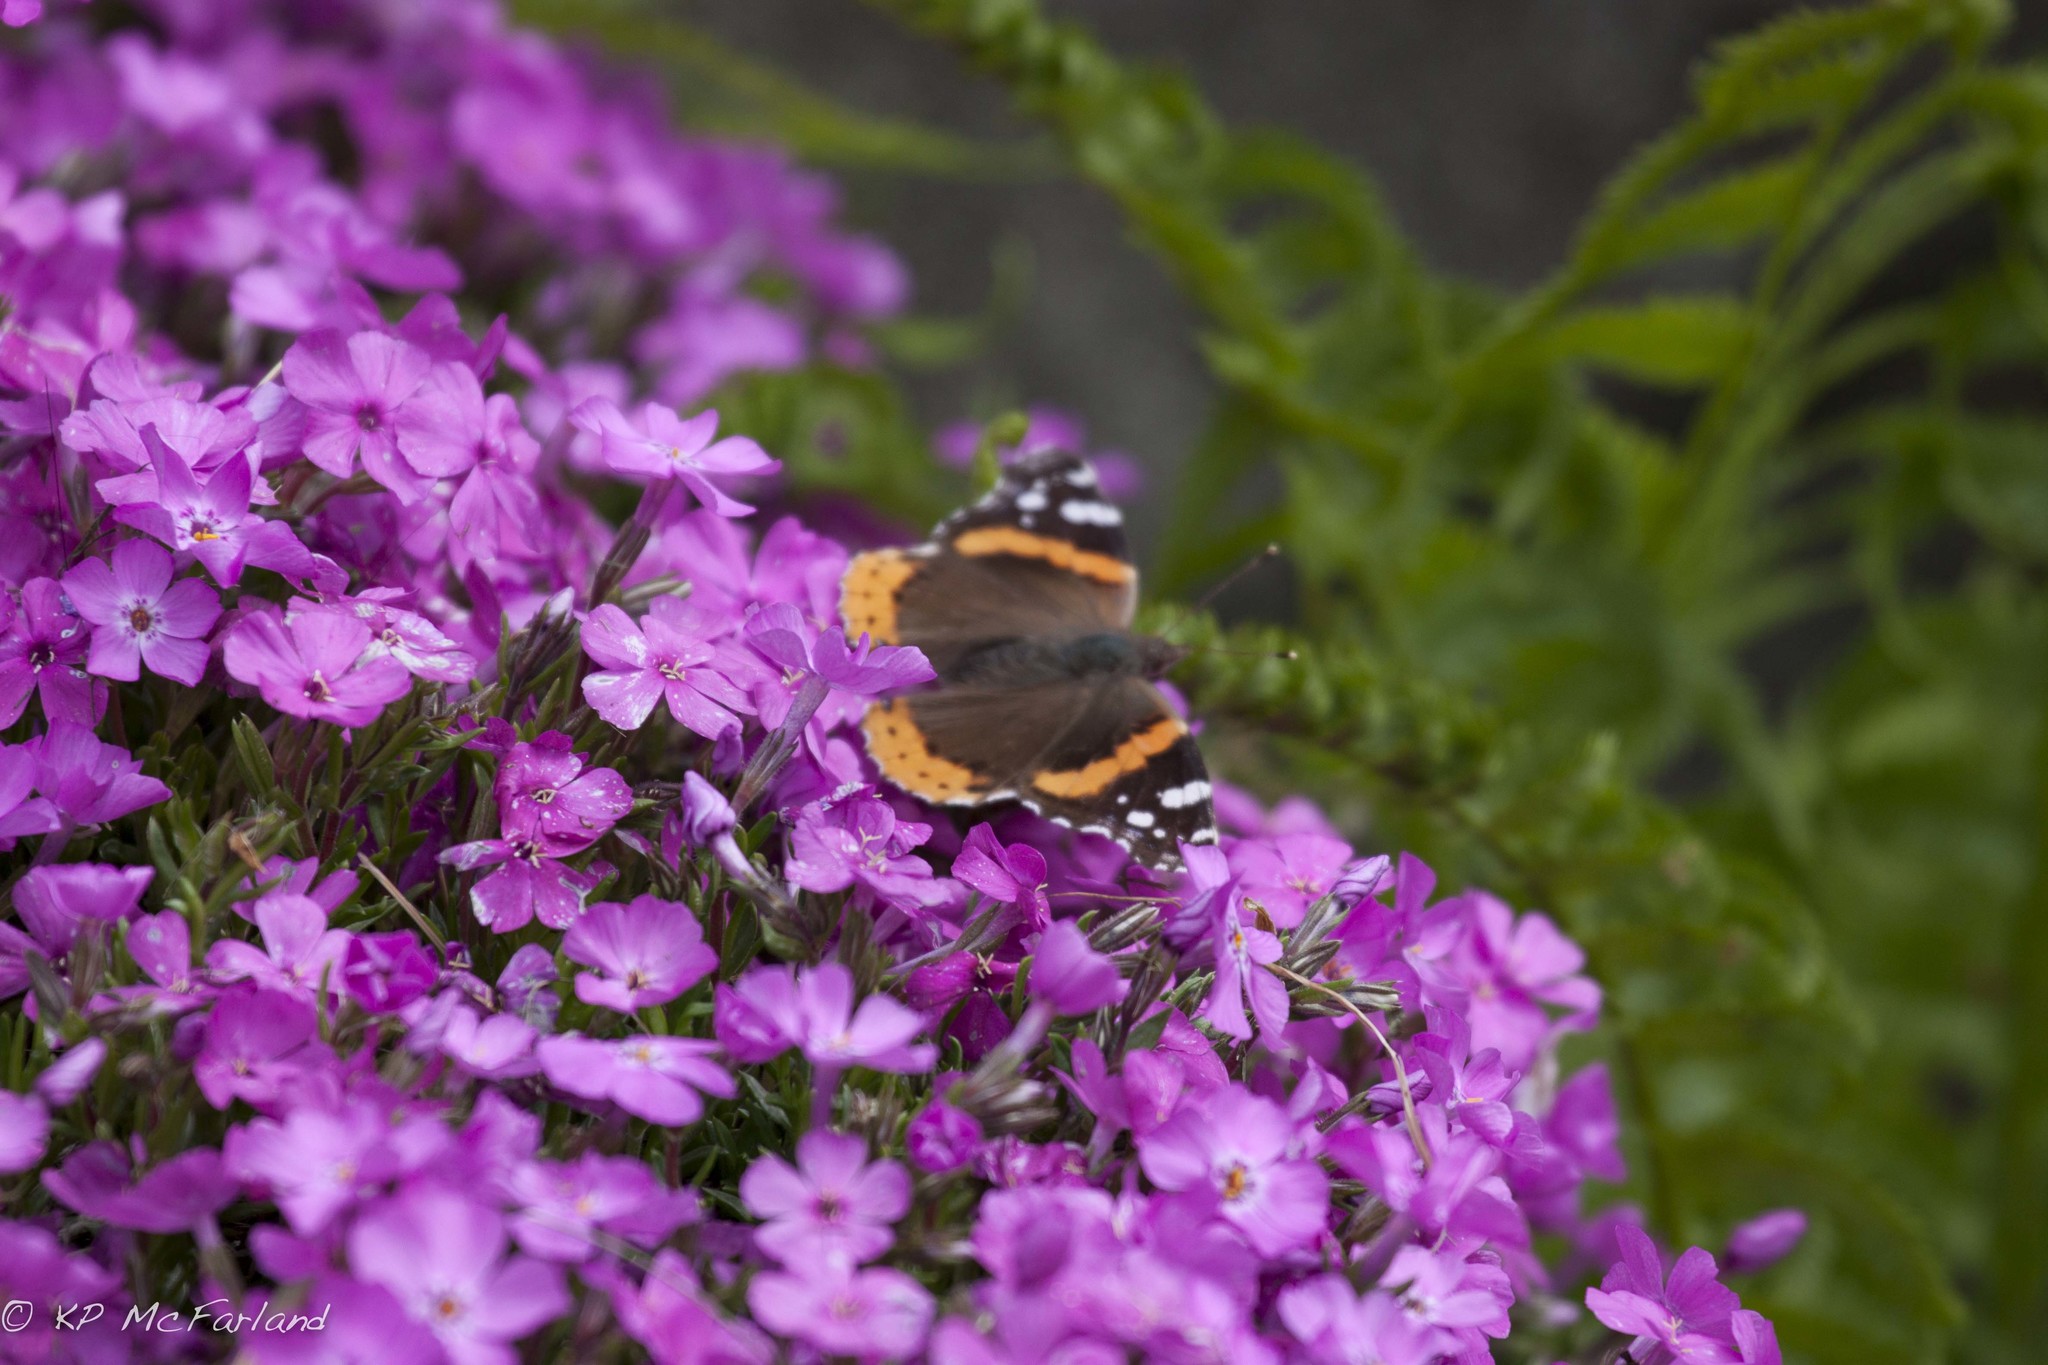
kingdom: Animalia
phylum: Arthropoda
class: Insecta
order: Lepidoptera
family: Nymphalidae
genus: Vanessa
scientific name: Vanessa atalanta
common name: Red admiral
